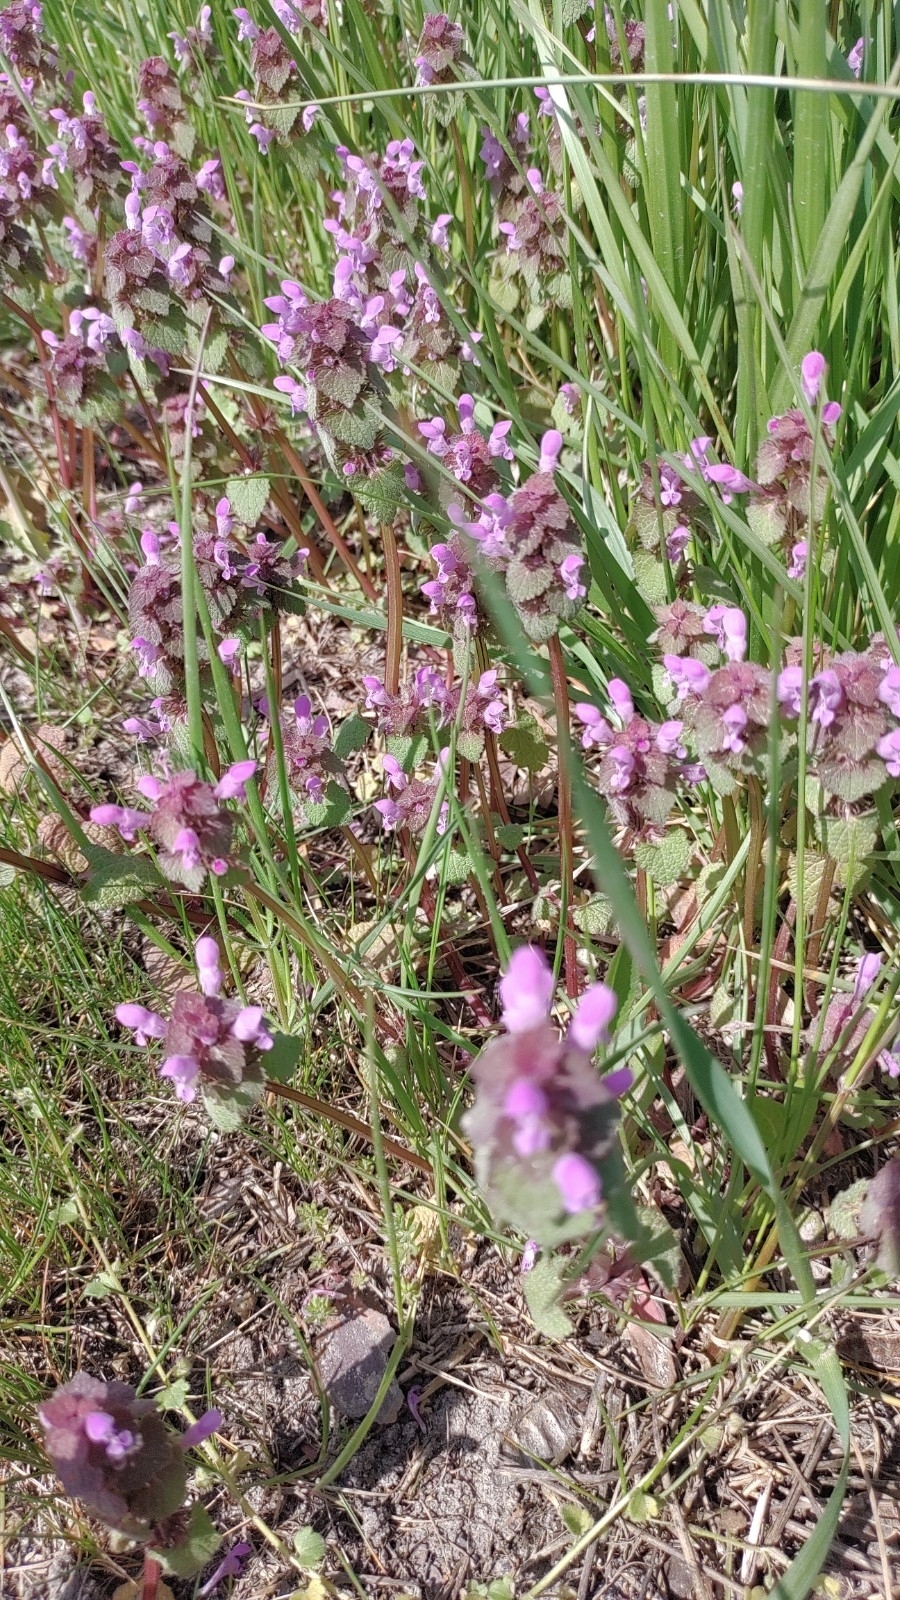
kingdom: Plantae
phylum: Tracheophyta
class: Magnoliopsida
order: Lamiales
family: Lamiaceae
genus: Lamium
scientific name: Lamium purpureum
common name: Red dead-nettle
